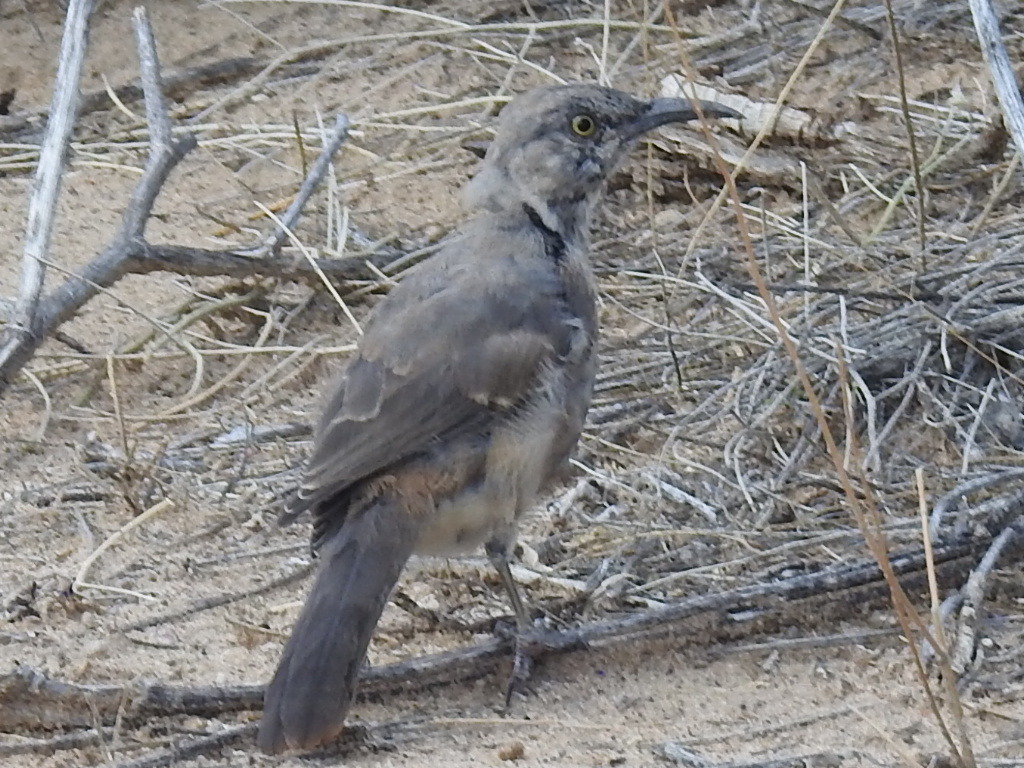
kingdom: Animalia
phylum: Chordata
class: Aves
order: Passeriformes
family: Mimidae
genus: Toxostoma
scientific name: Toxostoma curvirostre
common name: Curve-billed thrasher
